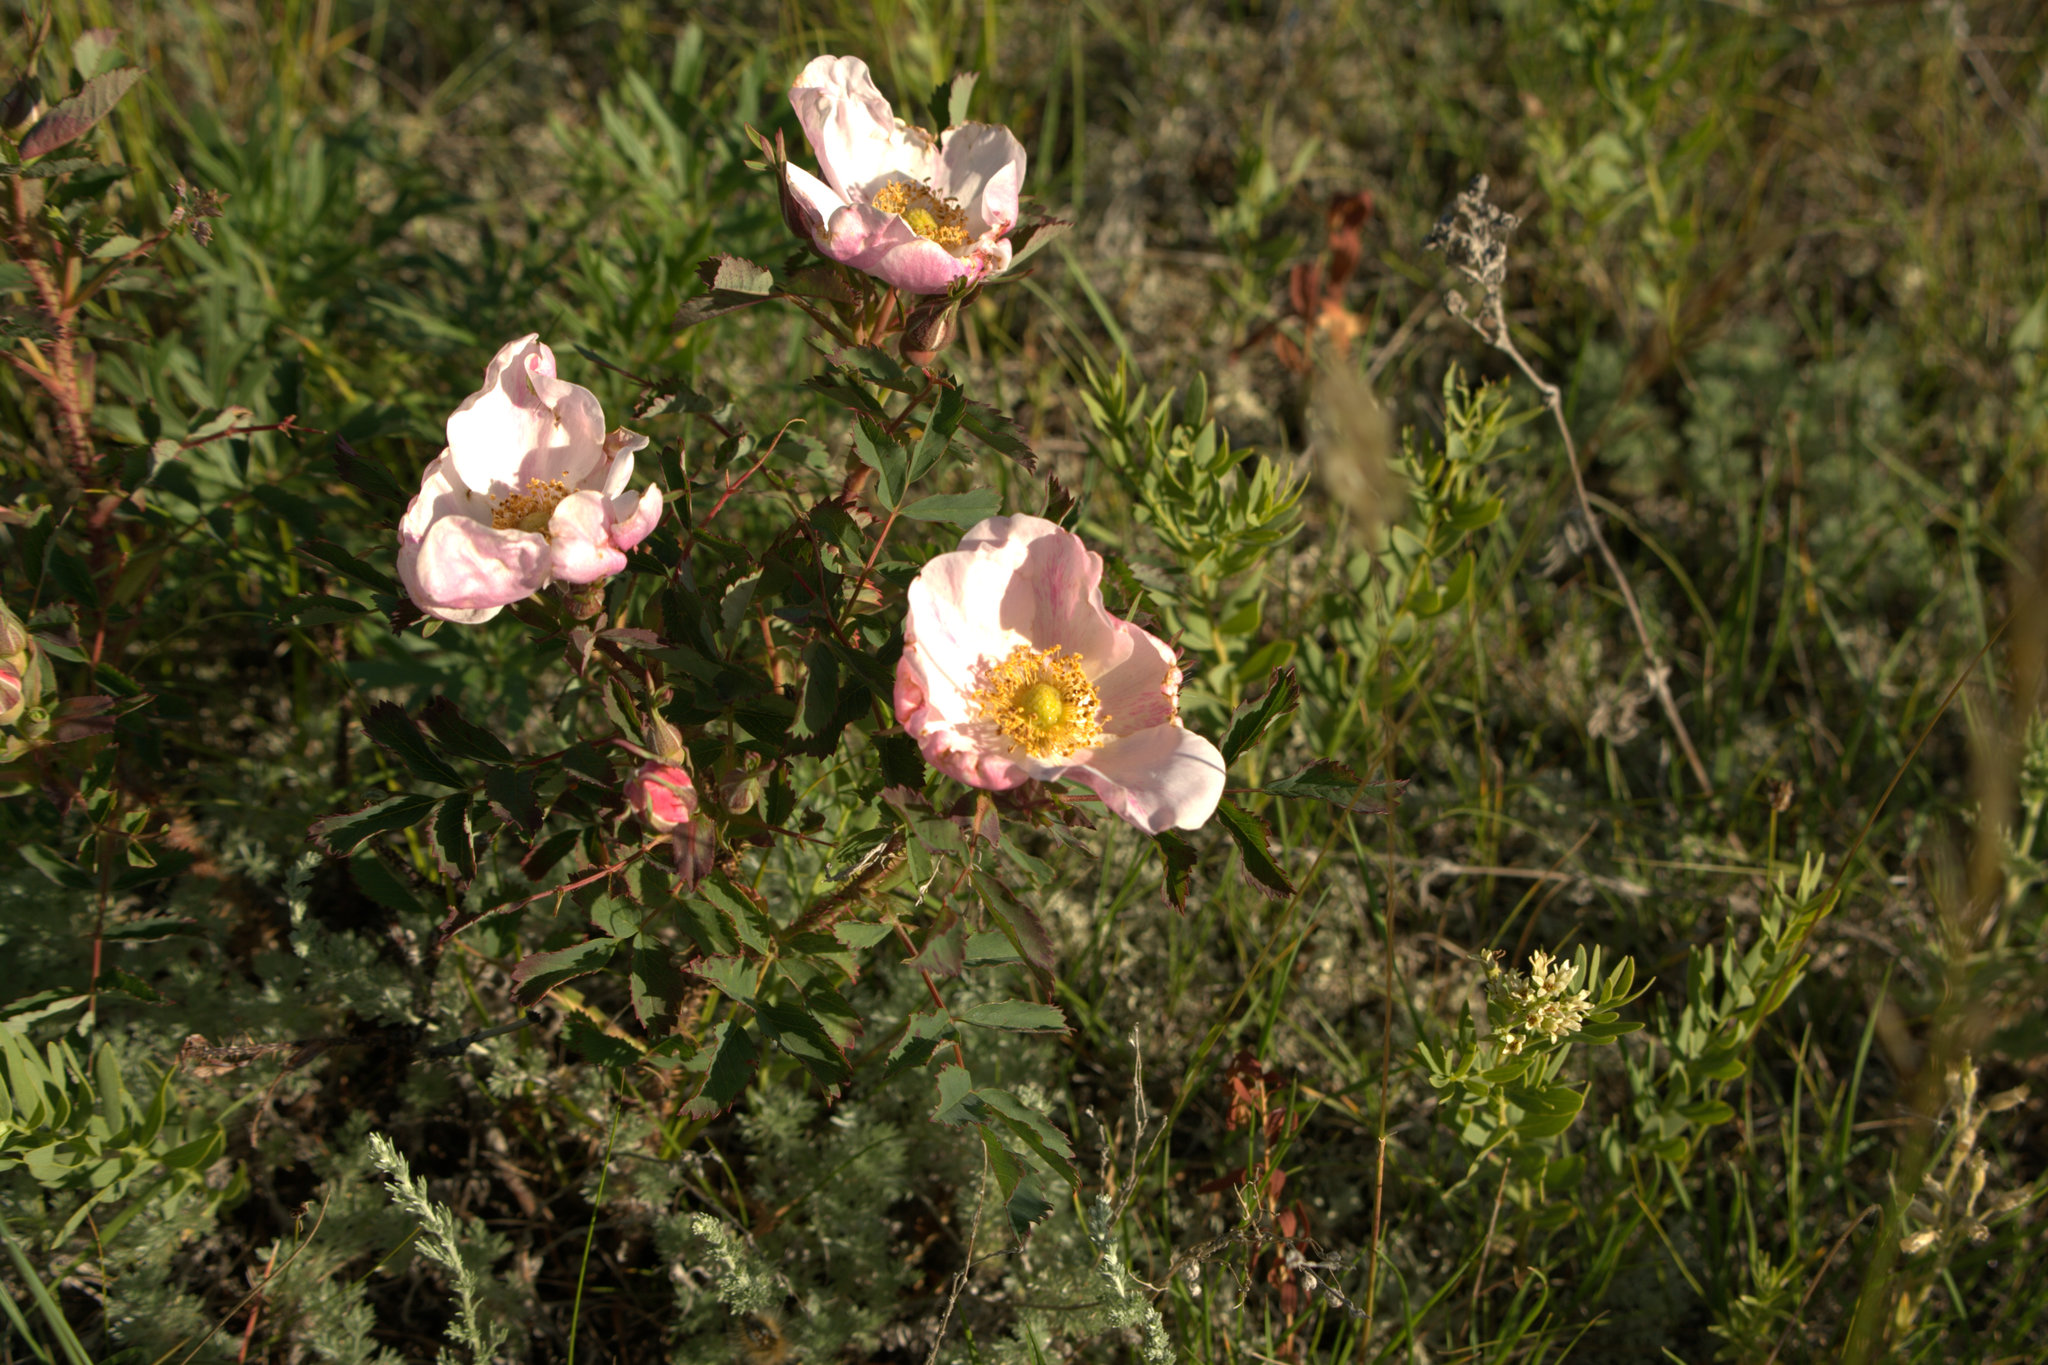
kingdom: Plantae
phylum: Tracheophyta
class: Magnoliopsida
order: Rosales
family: Rosaceae
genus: Rosa
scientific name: Rosa acicularis
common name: Prickly rose
